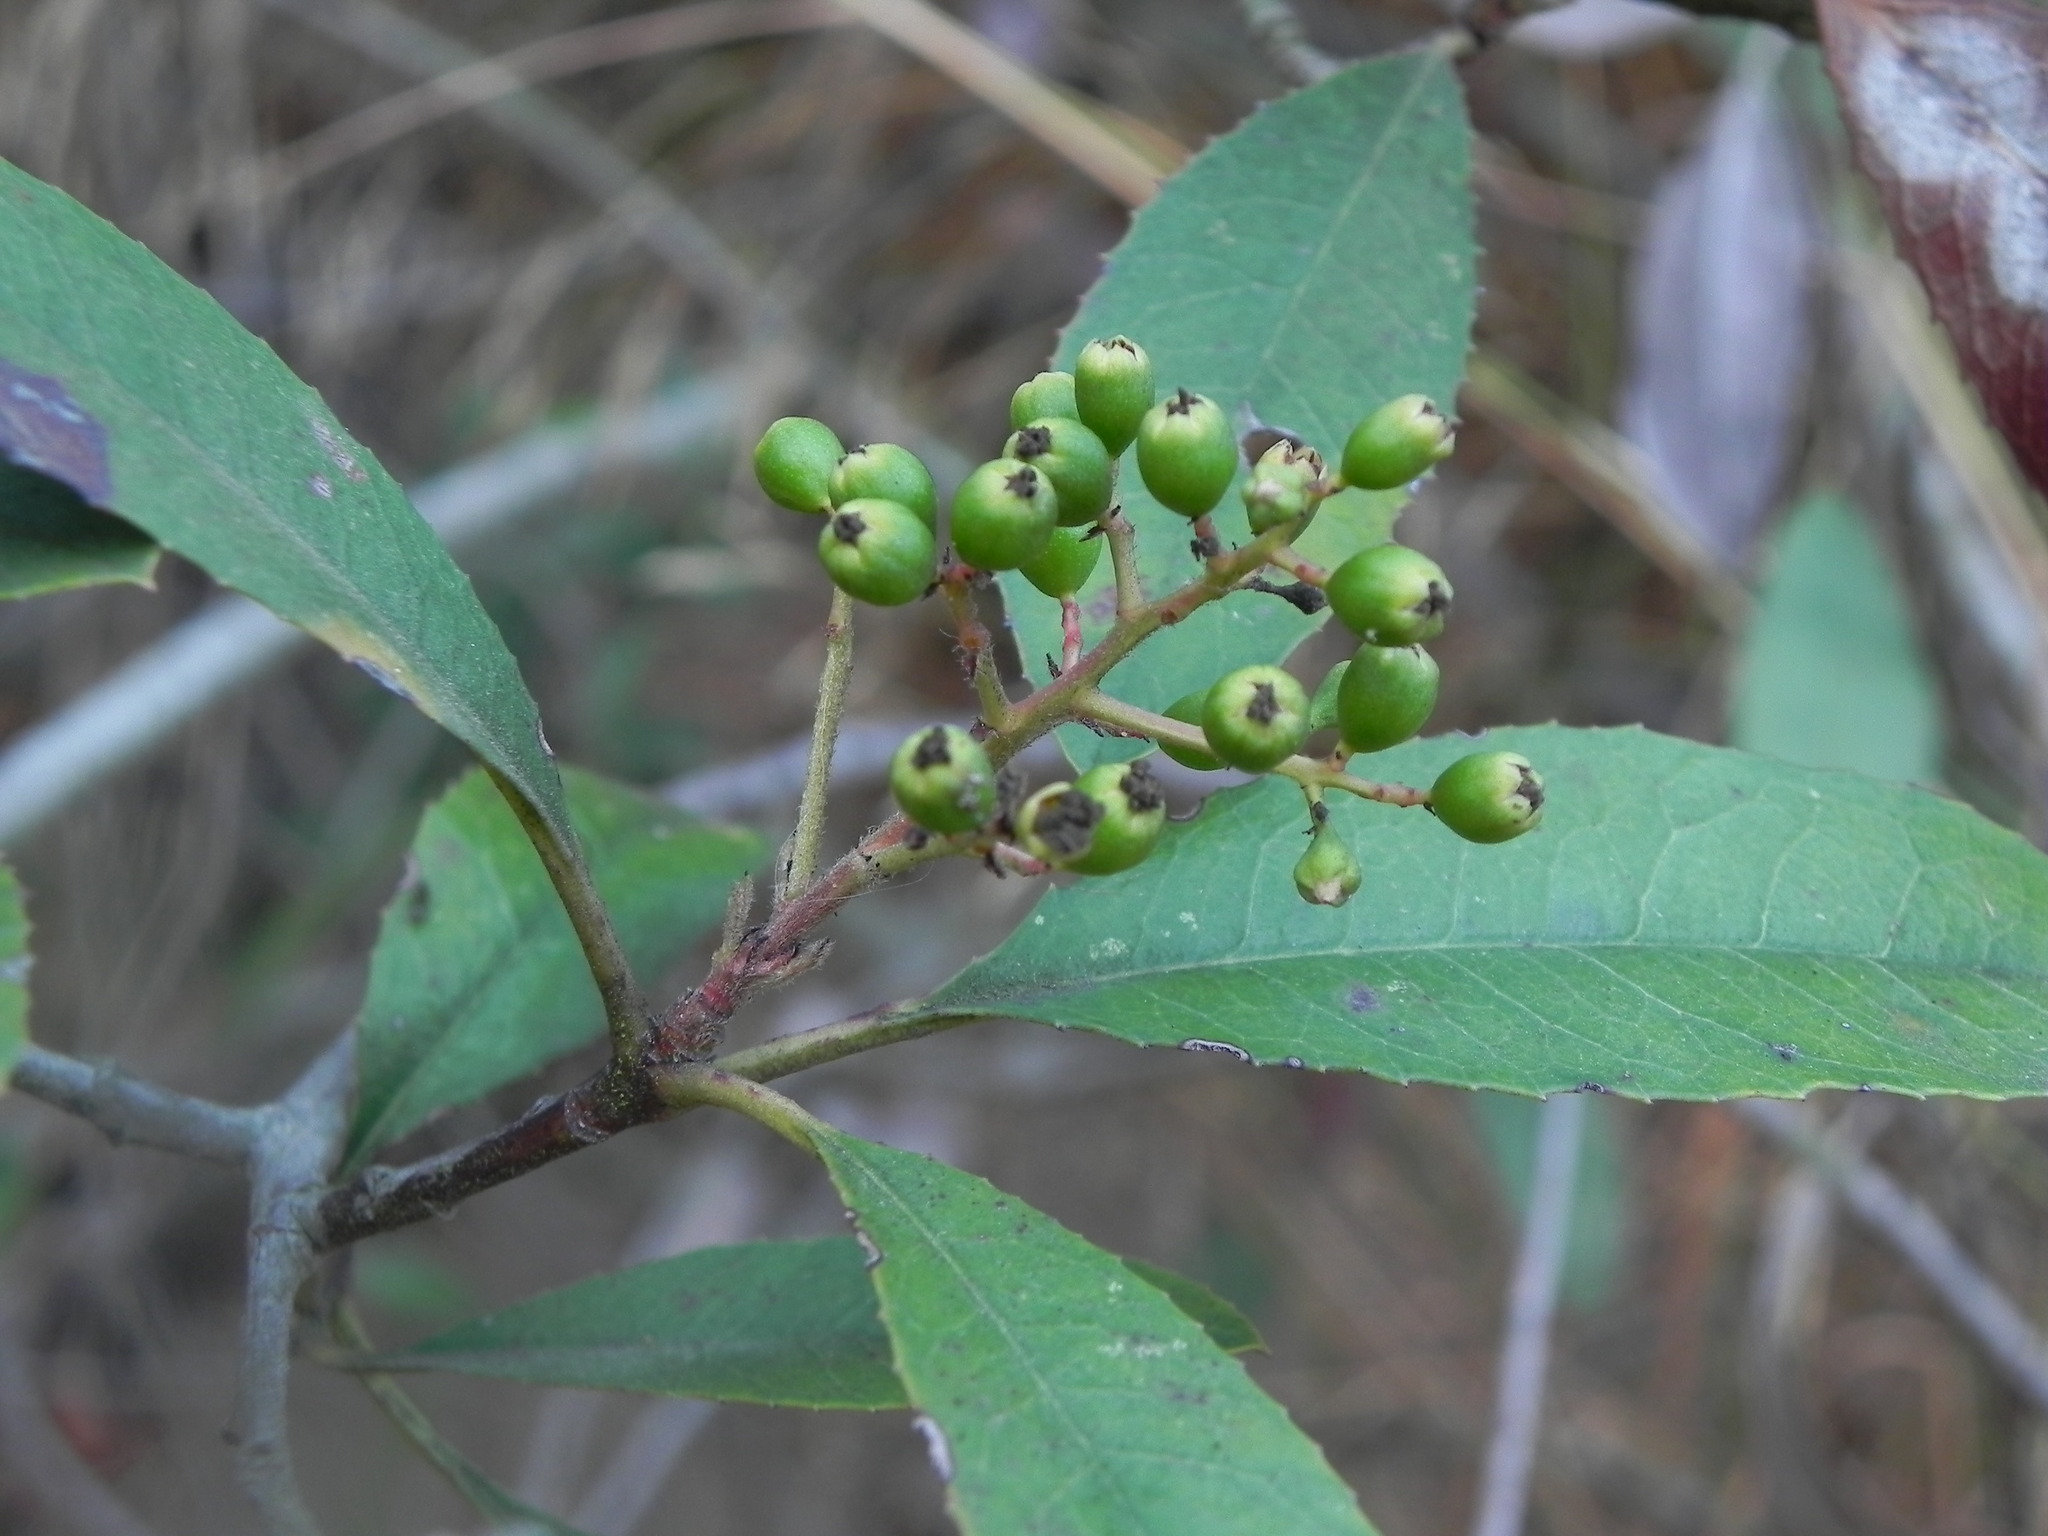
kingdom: Plantae
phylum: Tracheophyta
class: Magnoliopsida
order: Rosales
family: Rosaceae
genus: Heteromeles
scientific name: Heteromeles arbutifolia
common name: California-holly
